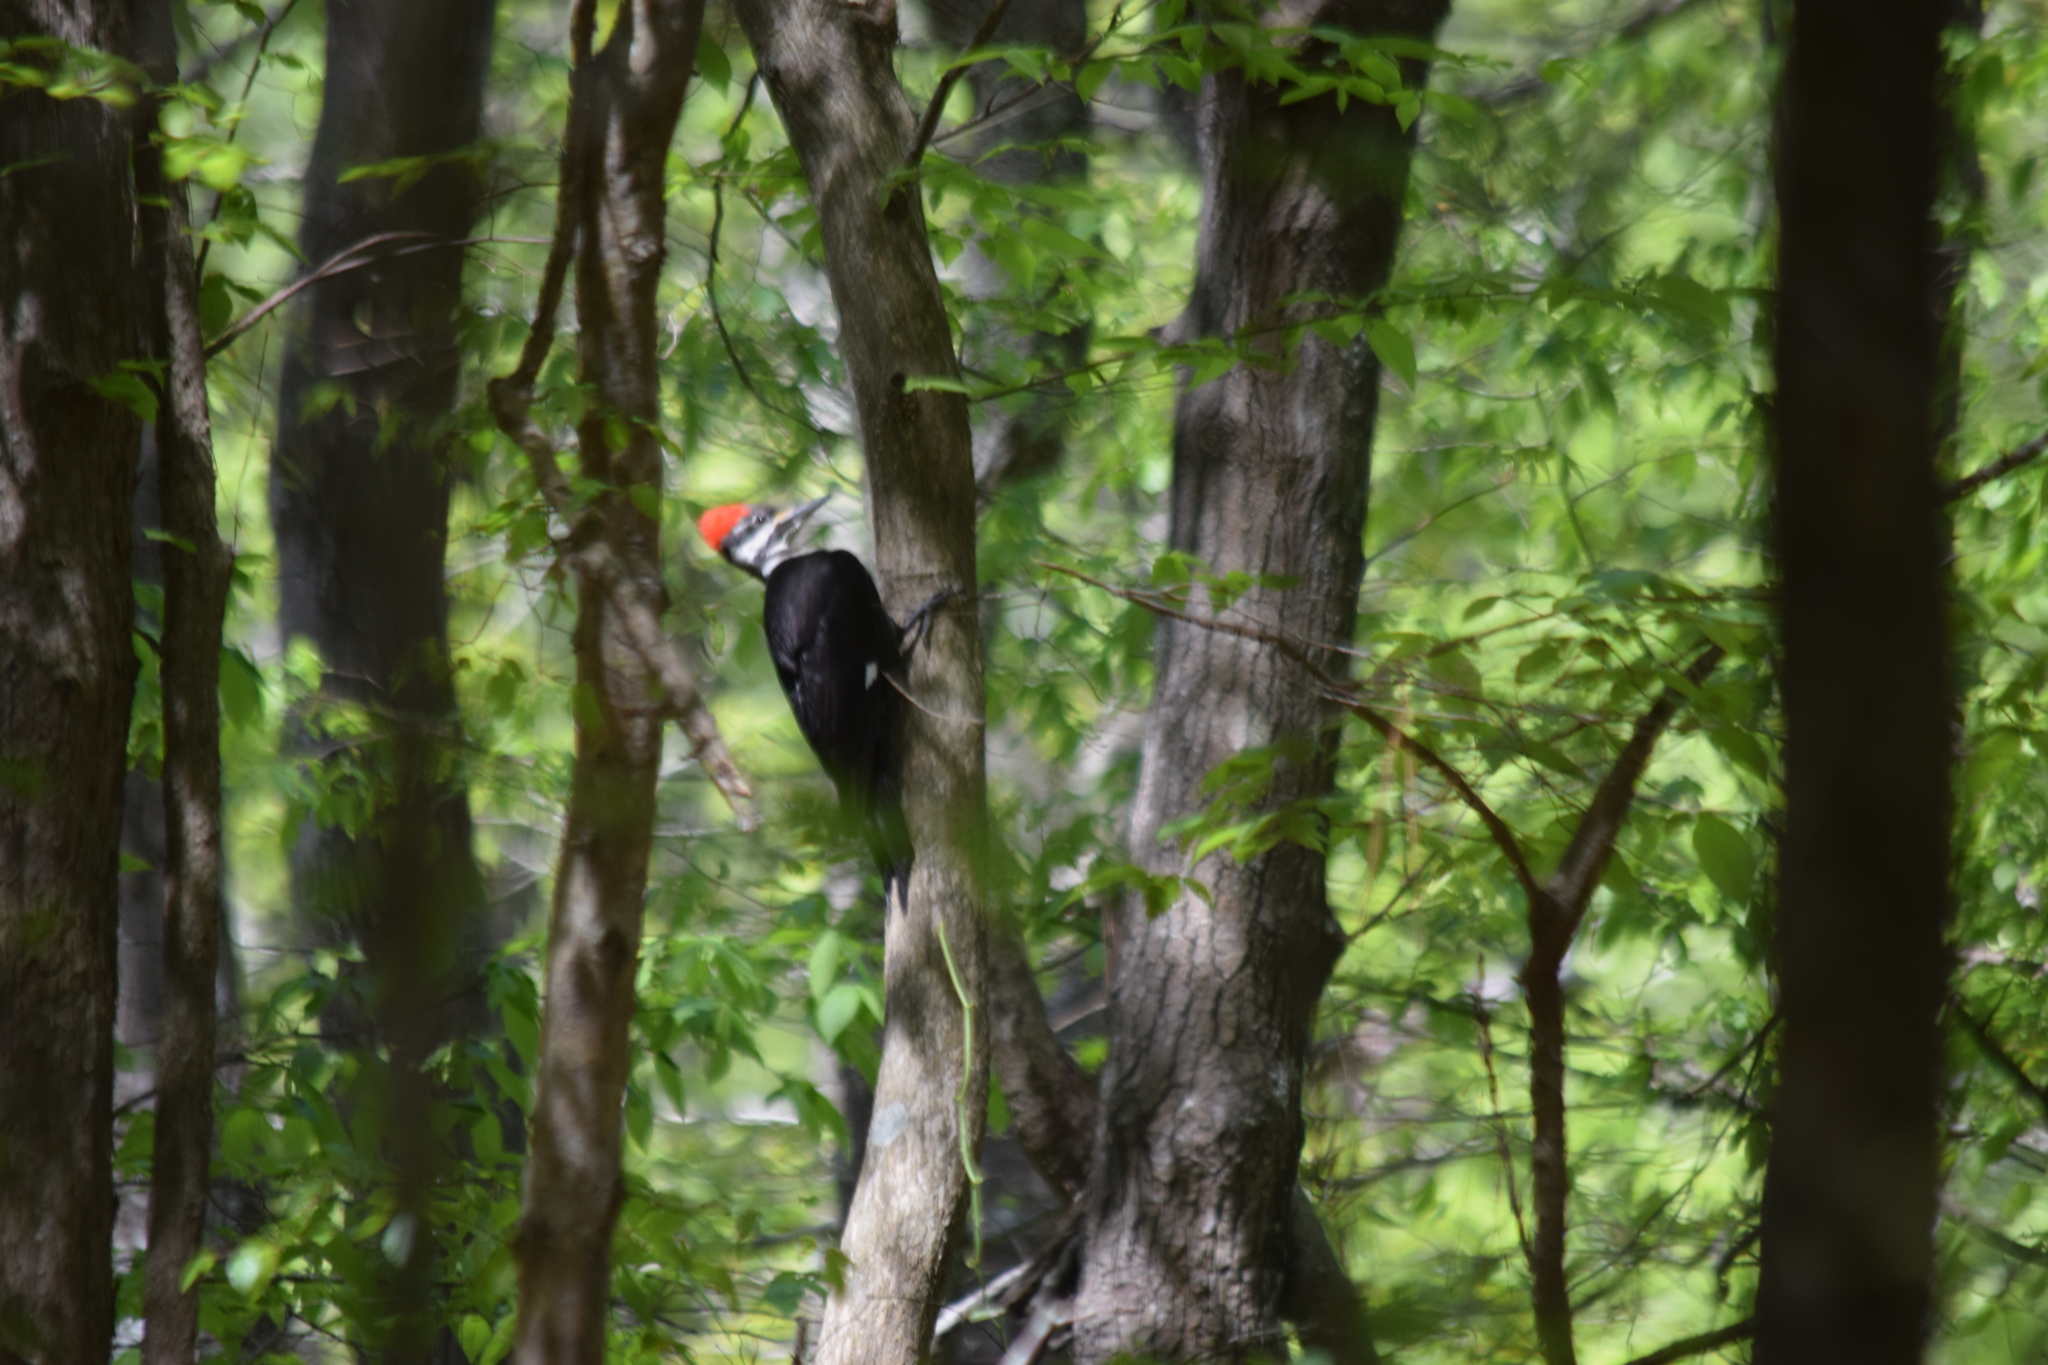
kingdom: Animalia
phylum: Chordata
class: Aves
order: Piciformes
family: Picidae
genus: Dryocopus
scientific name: Dryocopus pileatus
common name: Pileated woodpecker
